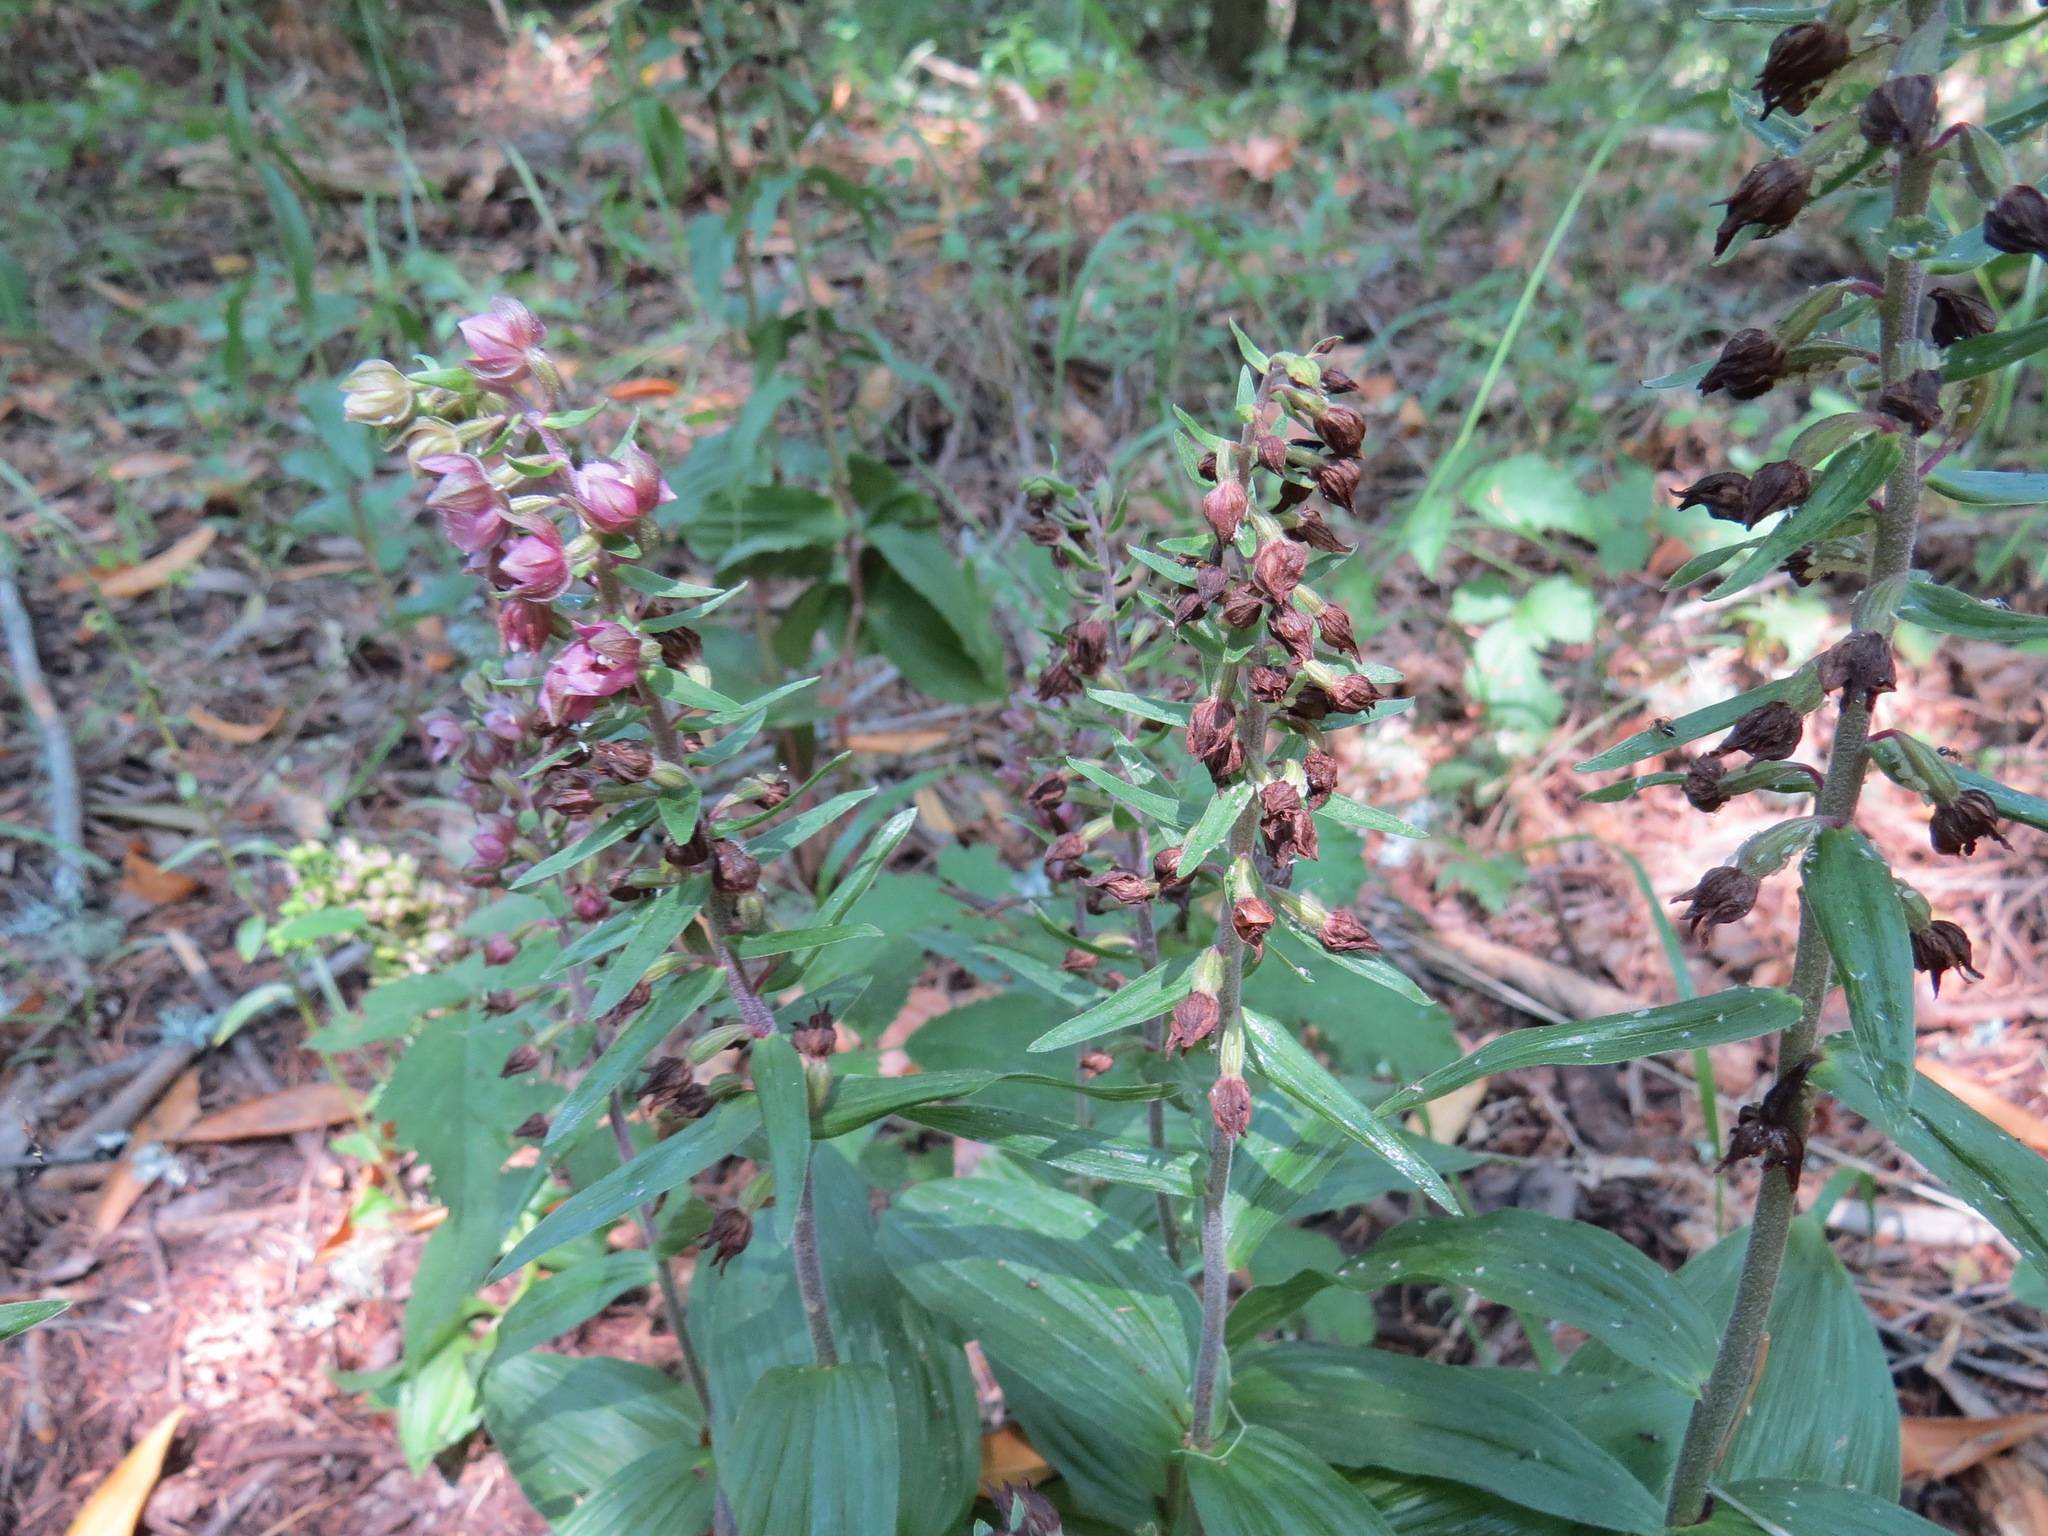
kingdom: Plantae
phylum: Tracheophyta
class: Liliopsida
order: Asparagales
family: Orchidaceae
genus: Epipactis
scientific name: Epipactis helleborine
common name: Broad-leaved helleborine
